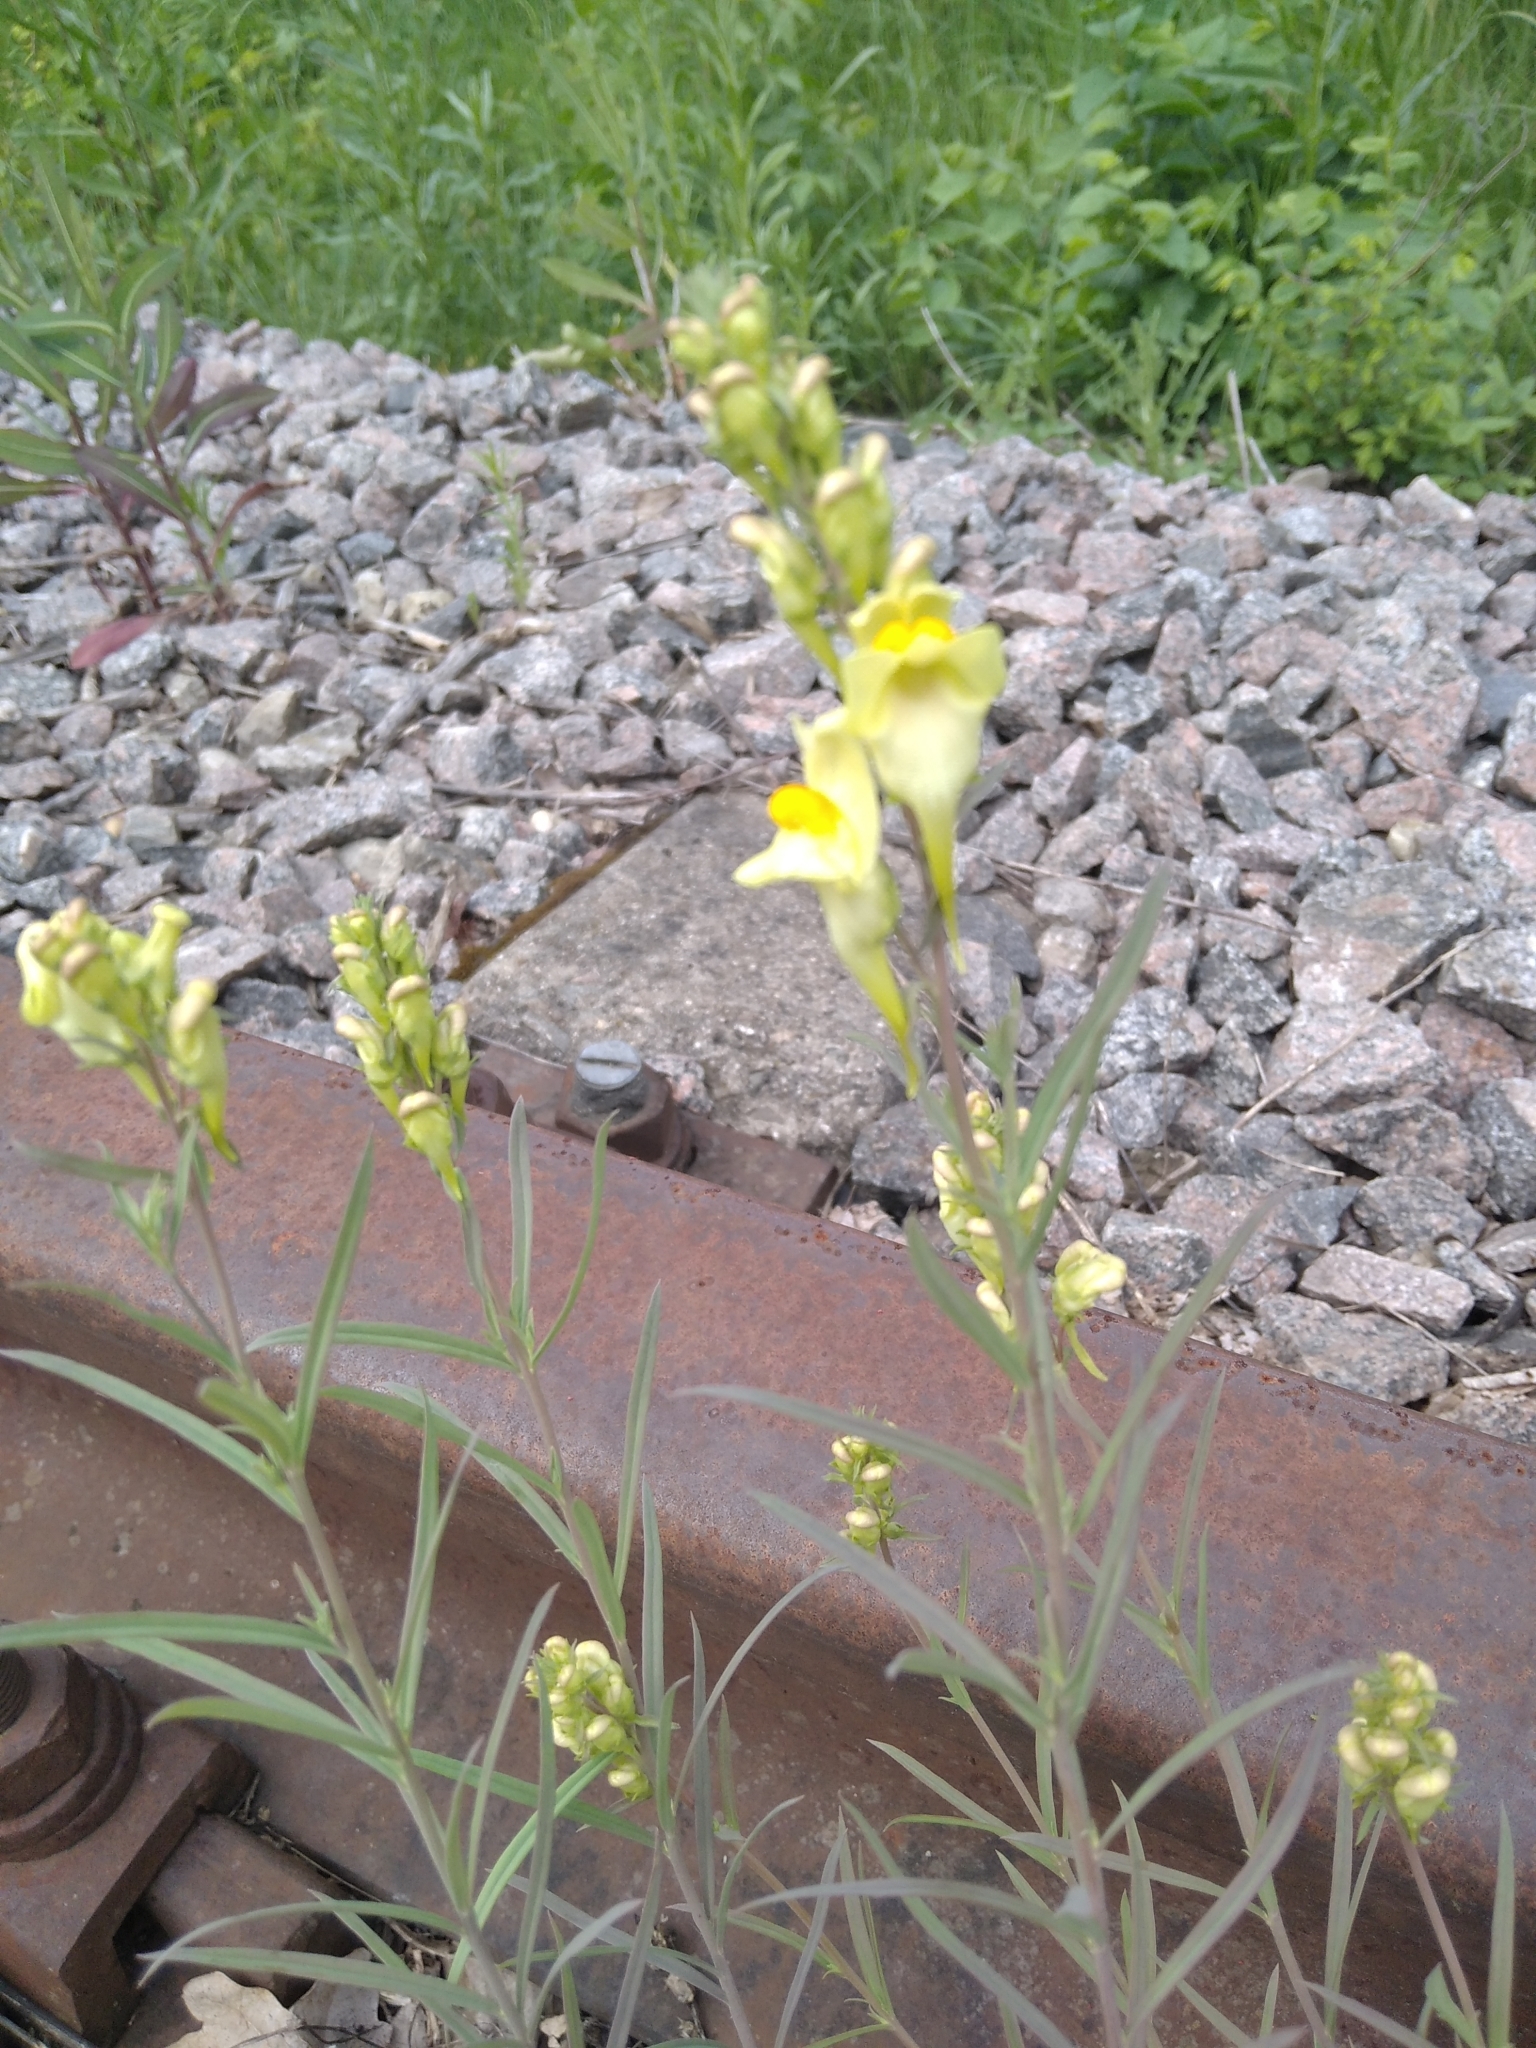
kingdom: Plantae
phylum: Tracheophyta
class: Magnoliopsida
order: Lamiales
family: Plantaginaceae
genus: Linaria
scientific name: Linaria vulgaris
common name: Butter and eggs
